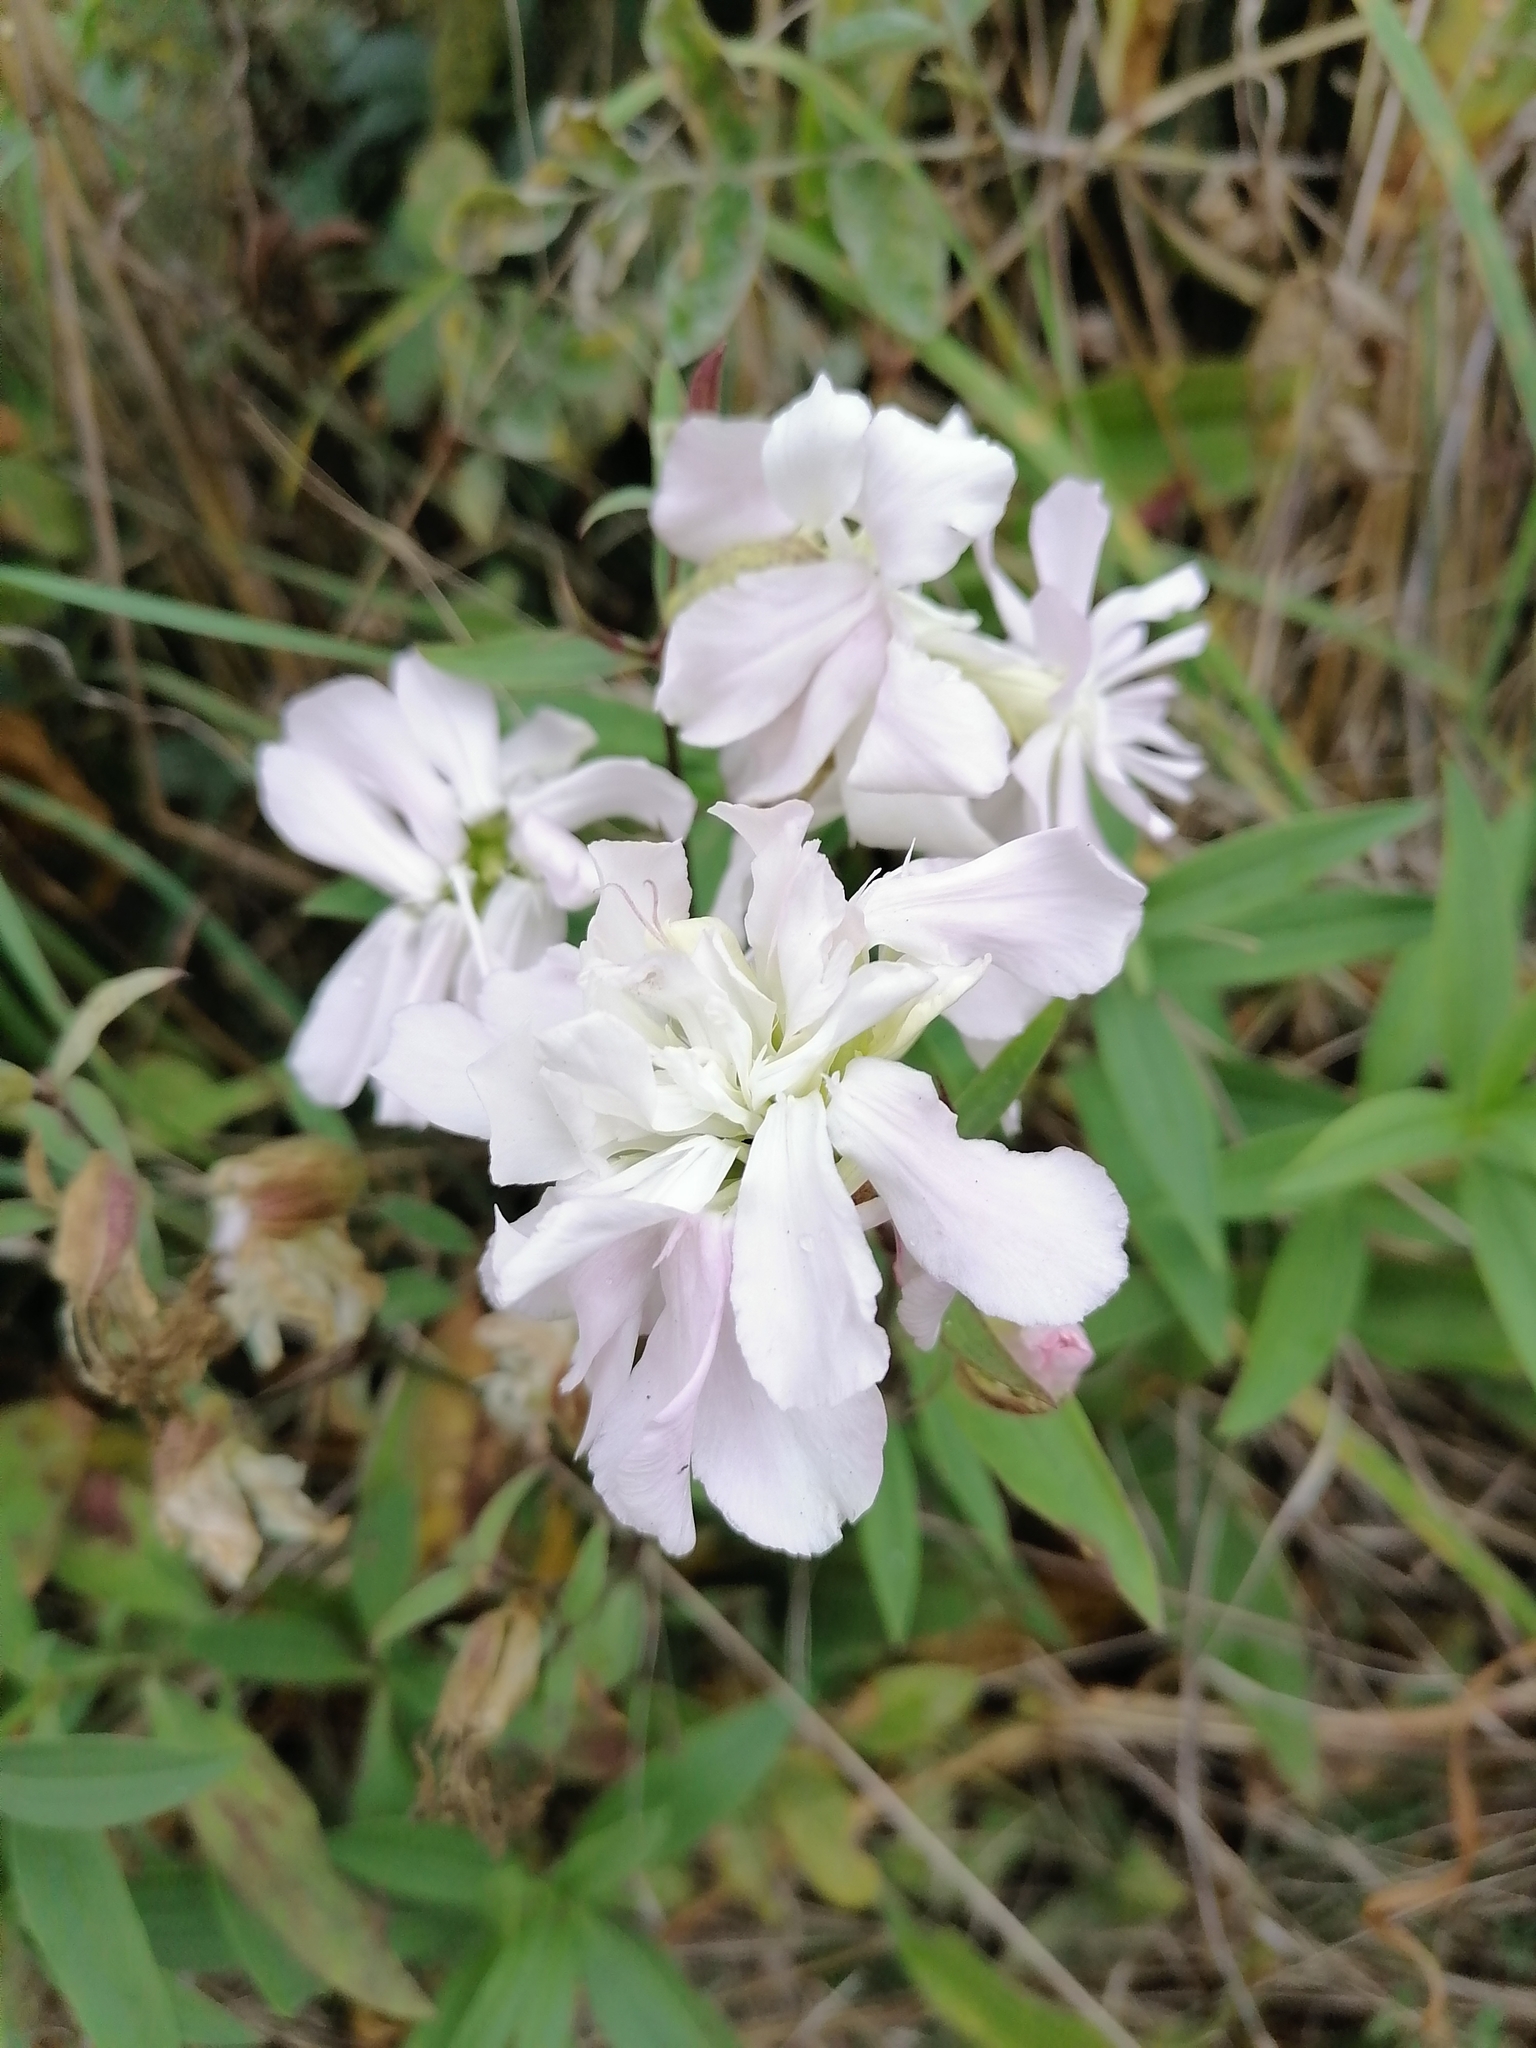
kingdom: Plantae
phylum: Tracheophyta
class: Magnoliopsida
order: Caryophyllales
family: Caryophyllaceae
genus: Saponaria
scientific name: Saponaria officinalis
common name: Soapwort
